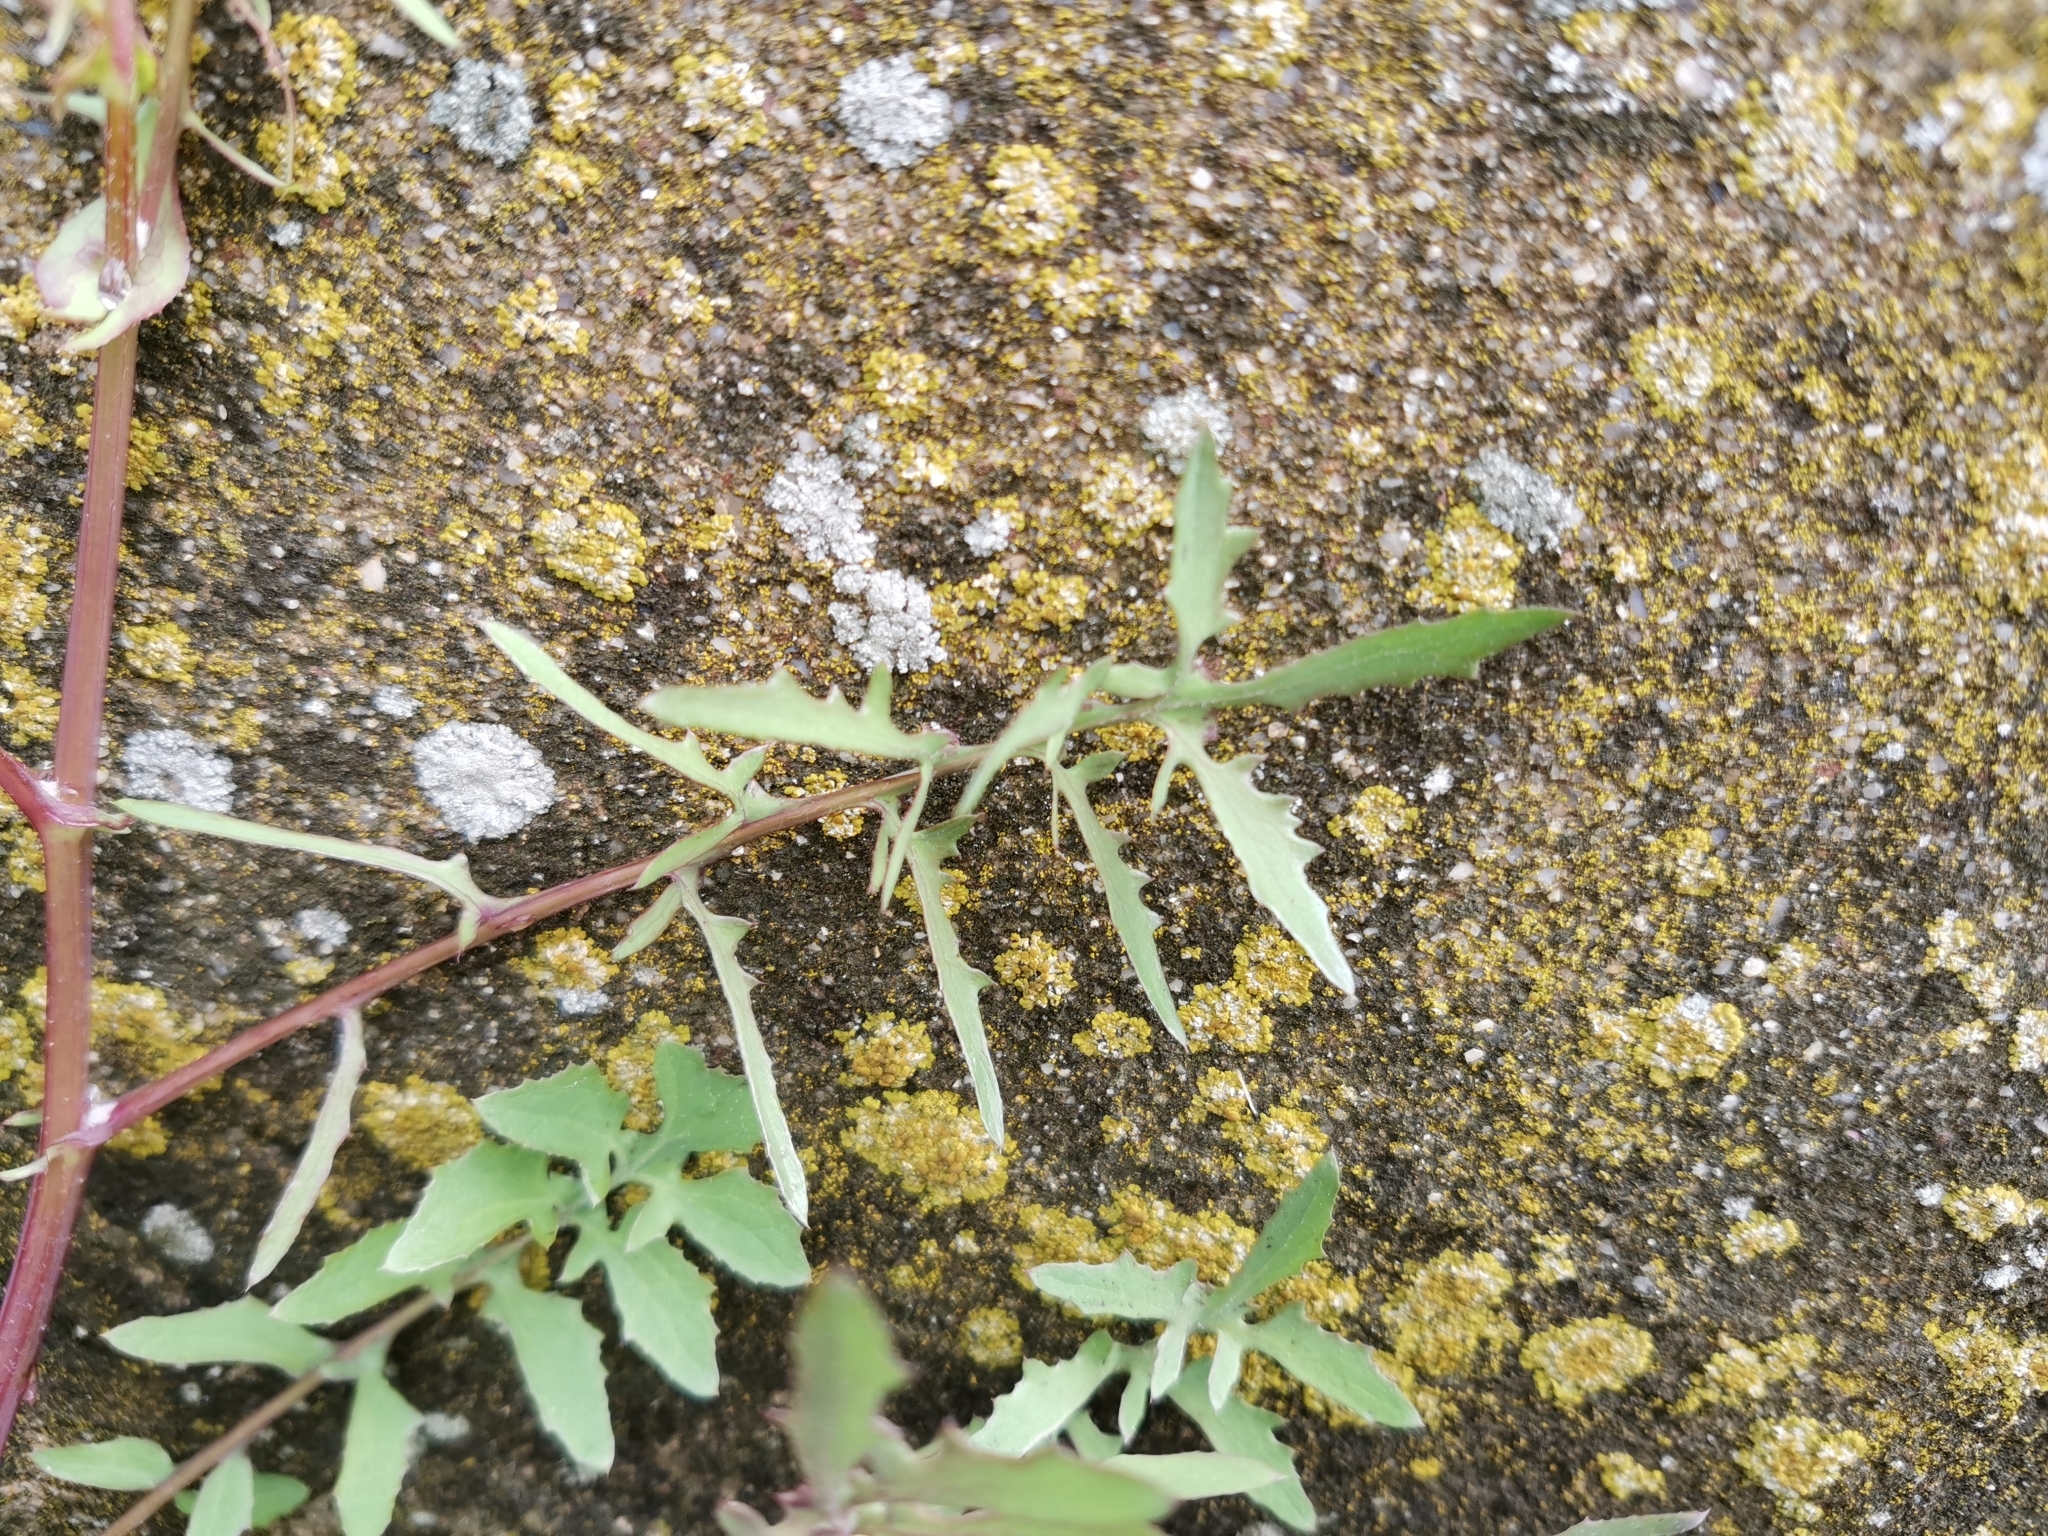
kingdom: Plantae
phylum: Tracheophyta
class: Magnoliopsida
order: Asterales
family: Asteraceae
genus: Sonchus
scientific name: Sonchus tenerrimus
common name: Clammy sowthistle
